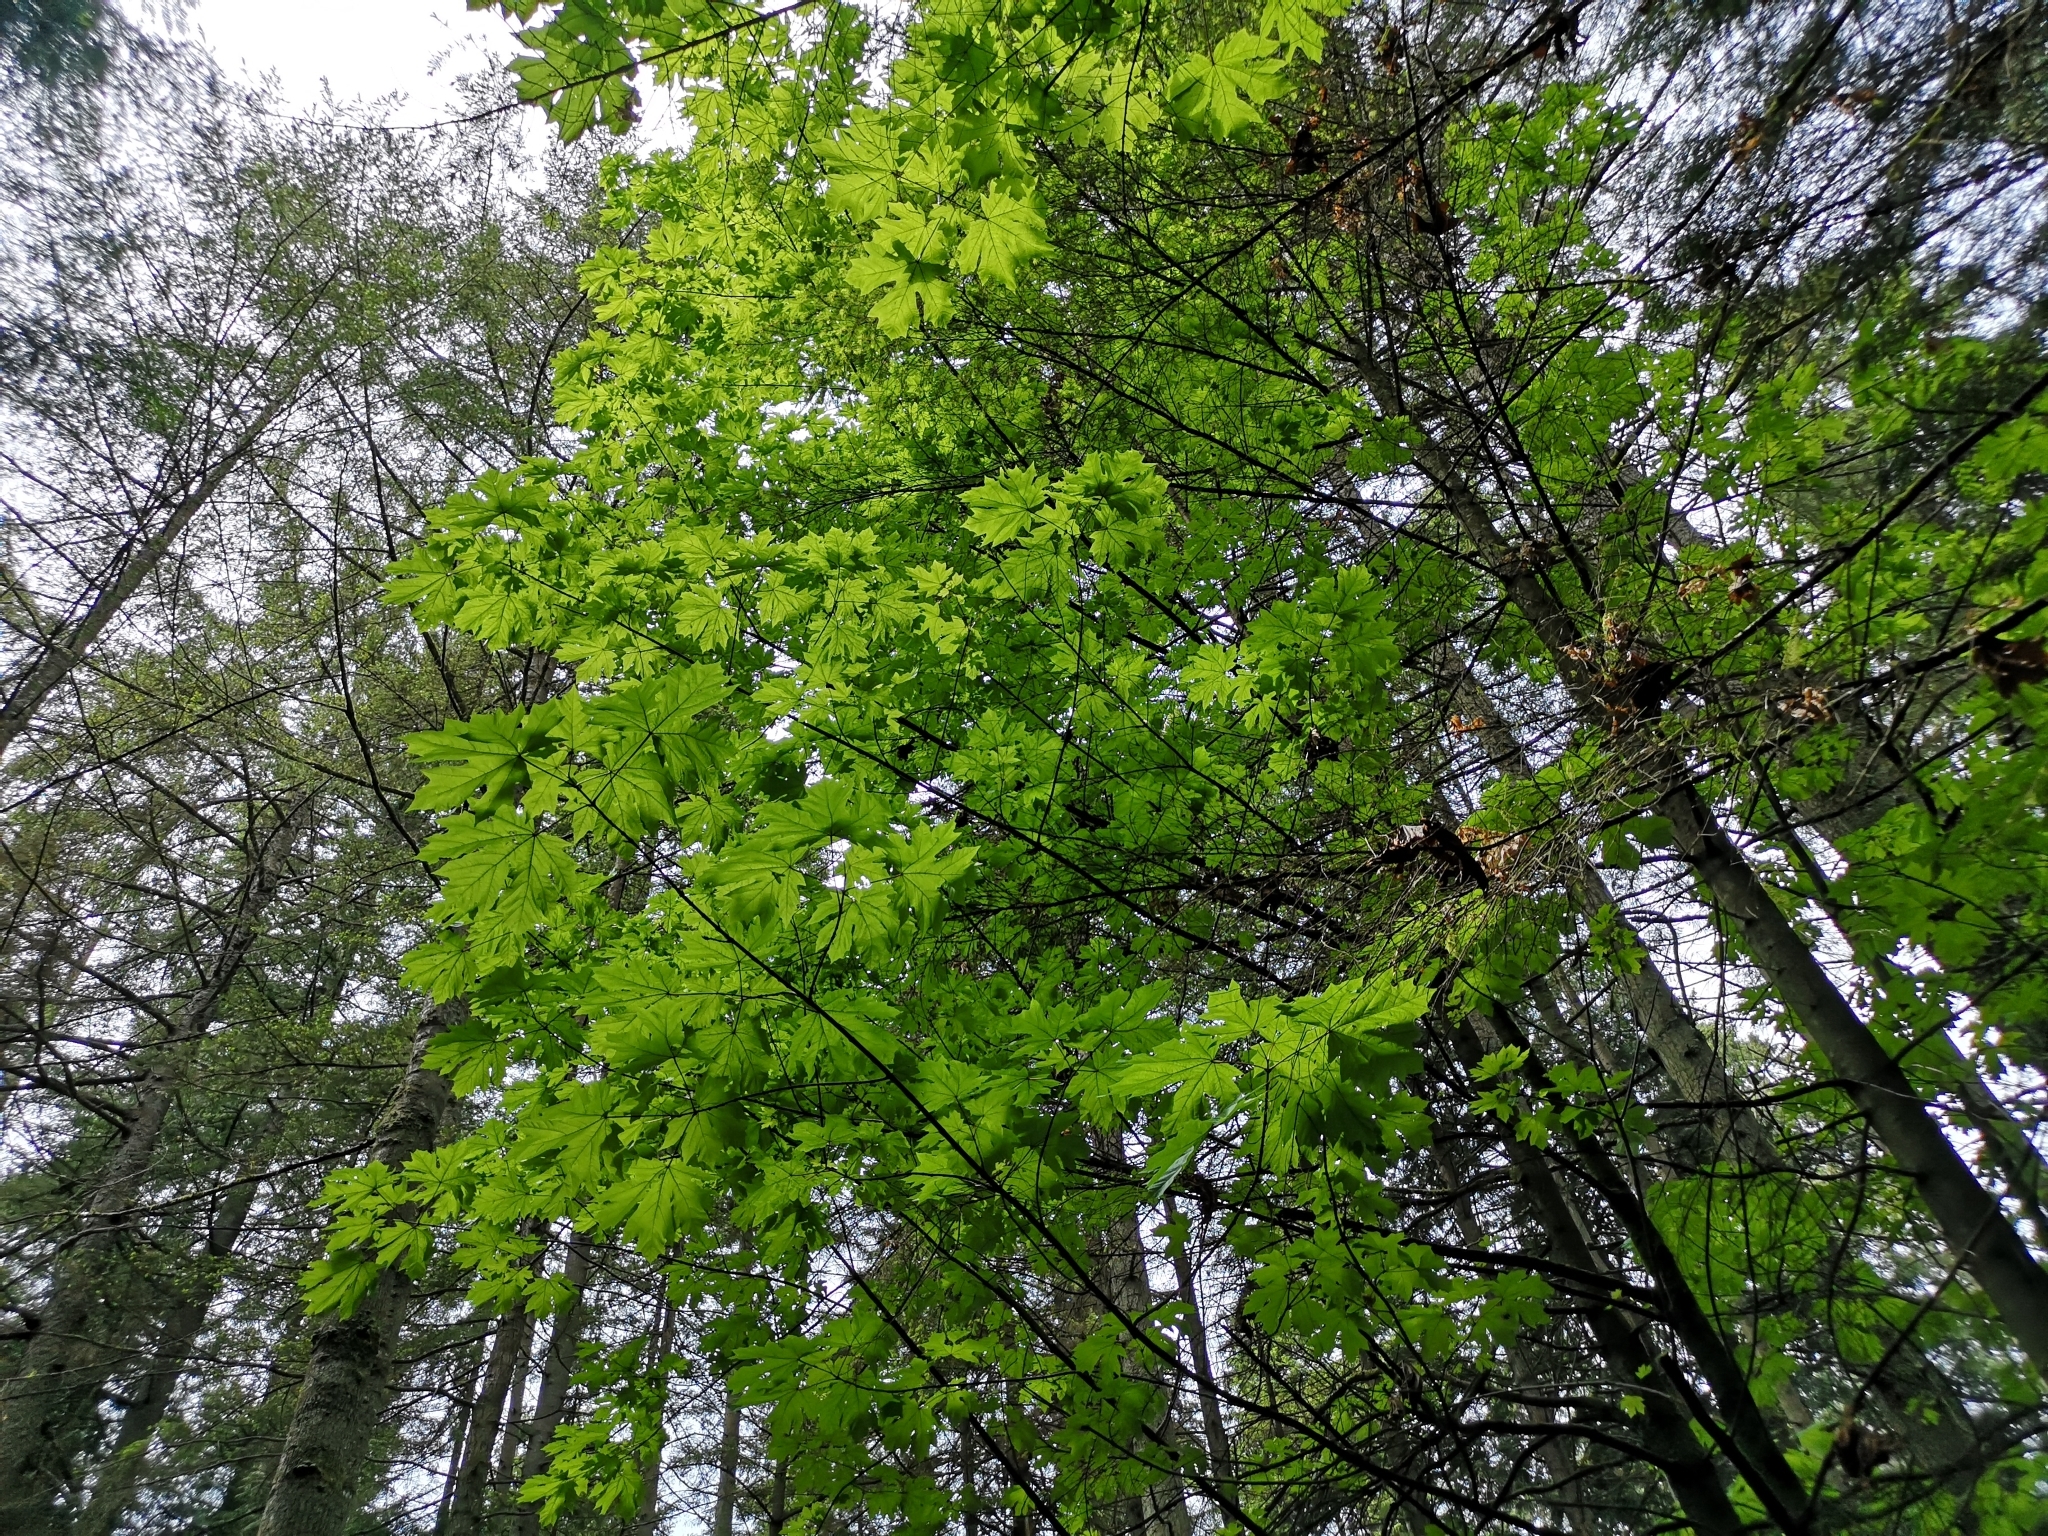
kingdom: Plantae
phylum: Tracheophyta
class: Magnoliopsida
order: Sapindales
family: Sapindaceae
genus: Acer
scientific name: Acer macrophyllum
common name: Oregon maple
